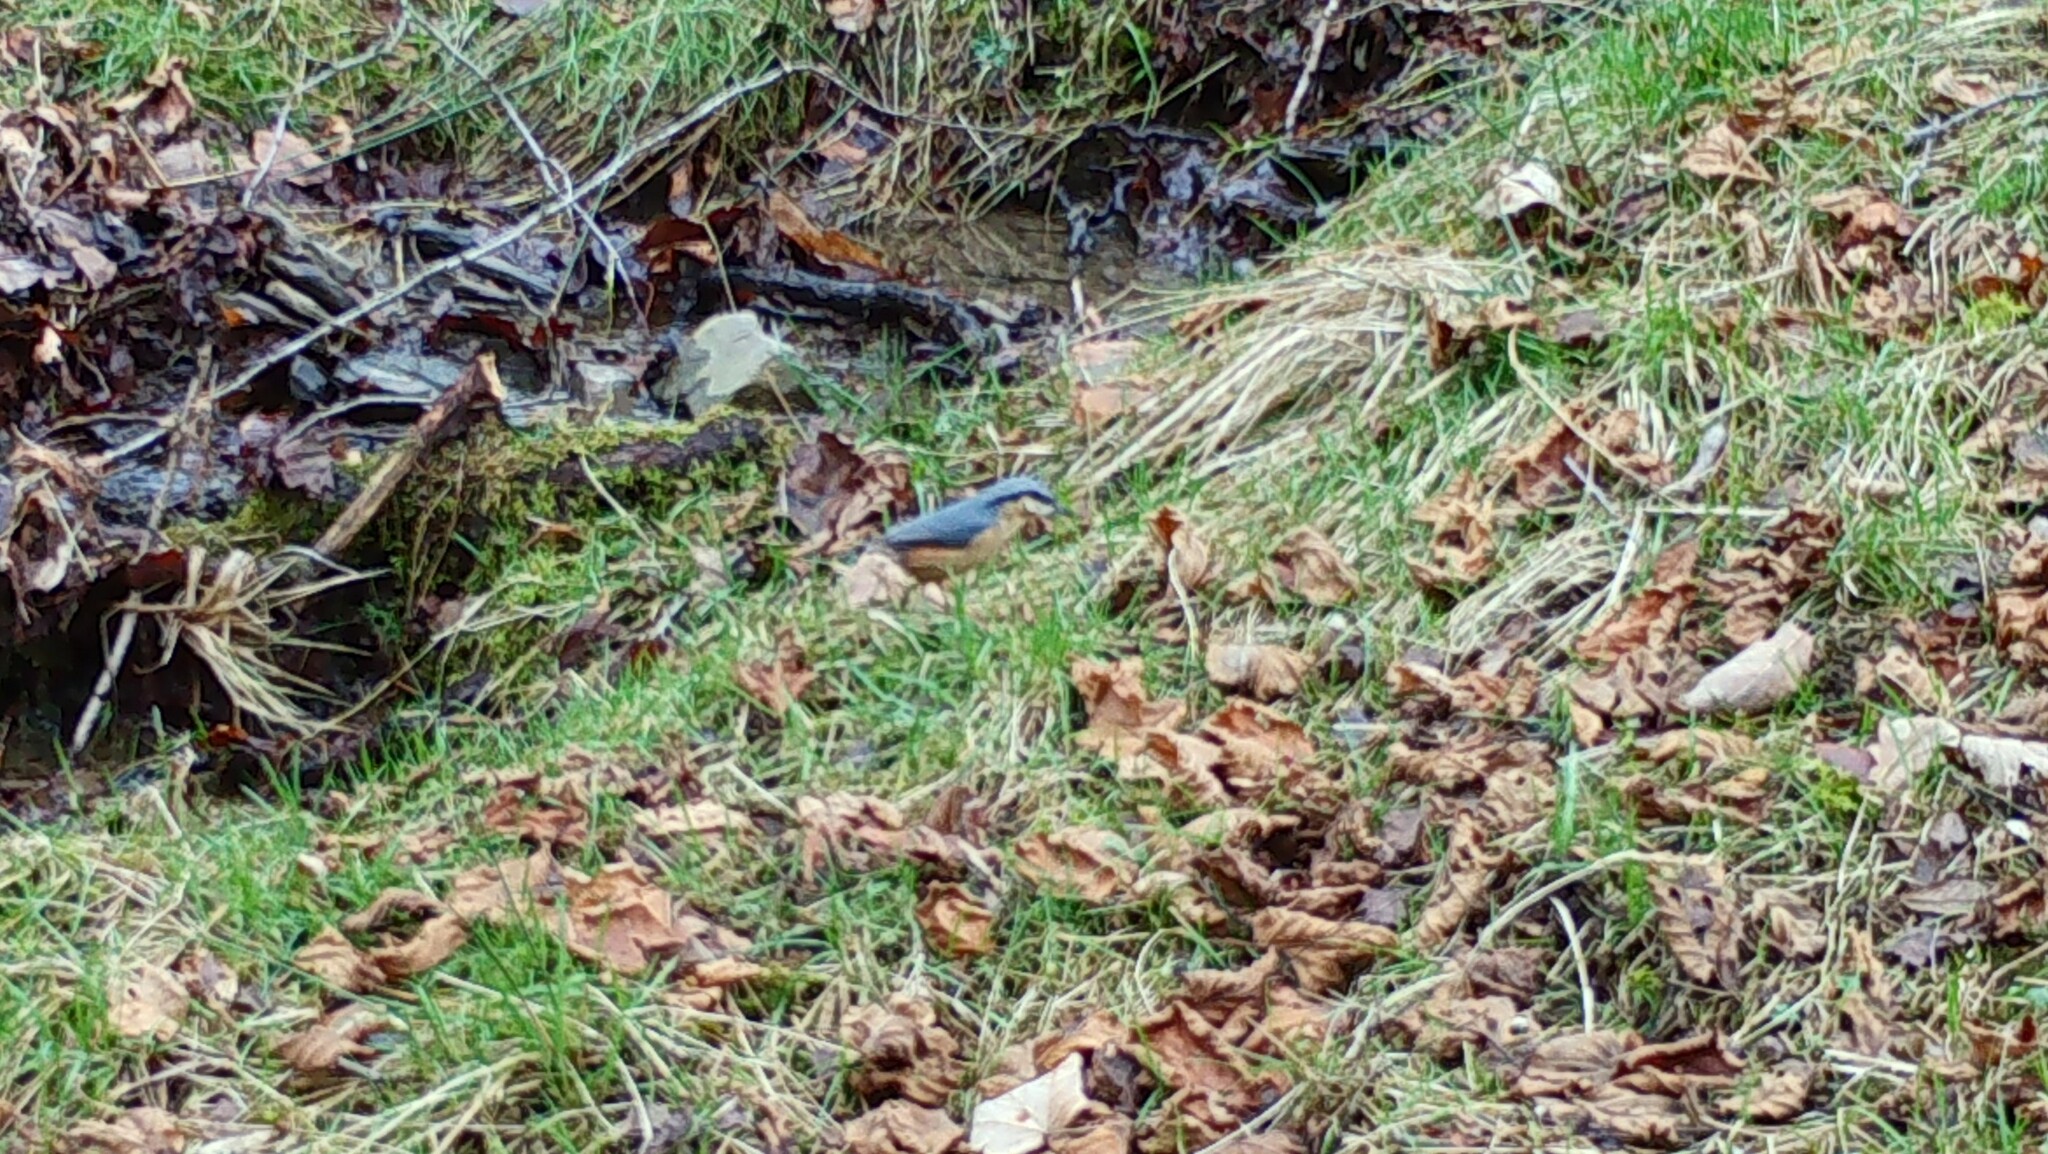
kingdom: Animalia
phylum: Chordata
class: Aves
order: Passeriformes
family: Sittidae
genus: Sitta
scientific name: Sitta europaea
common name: Eurasian nuthatch
